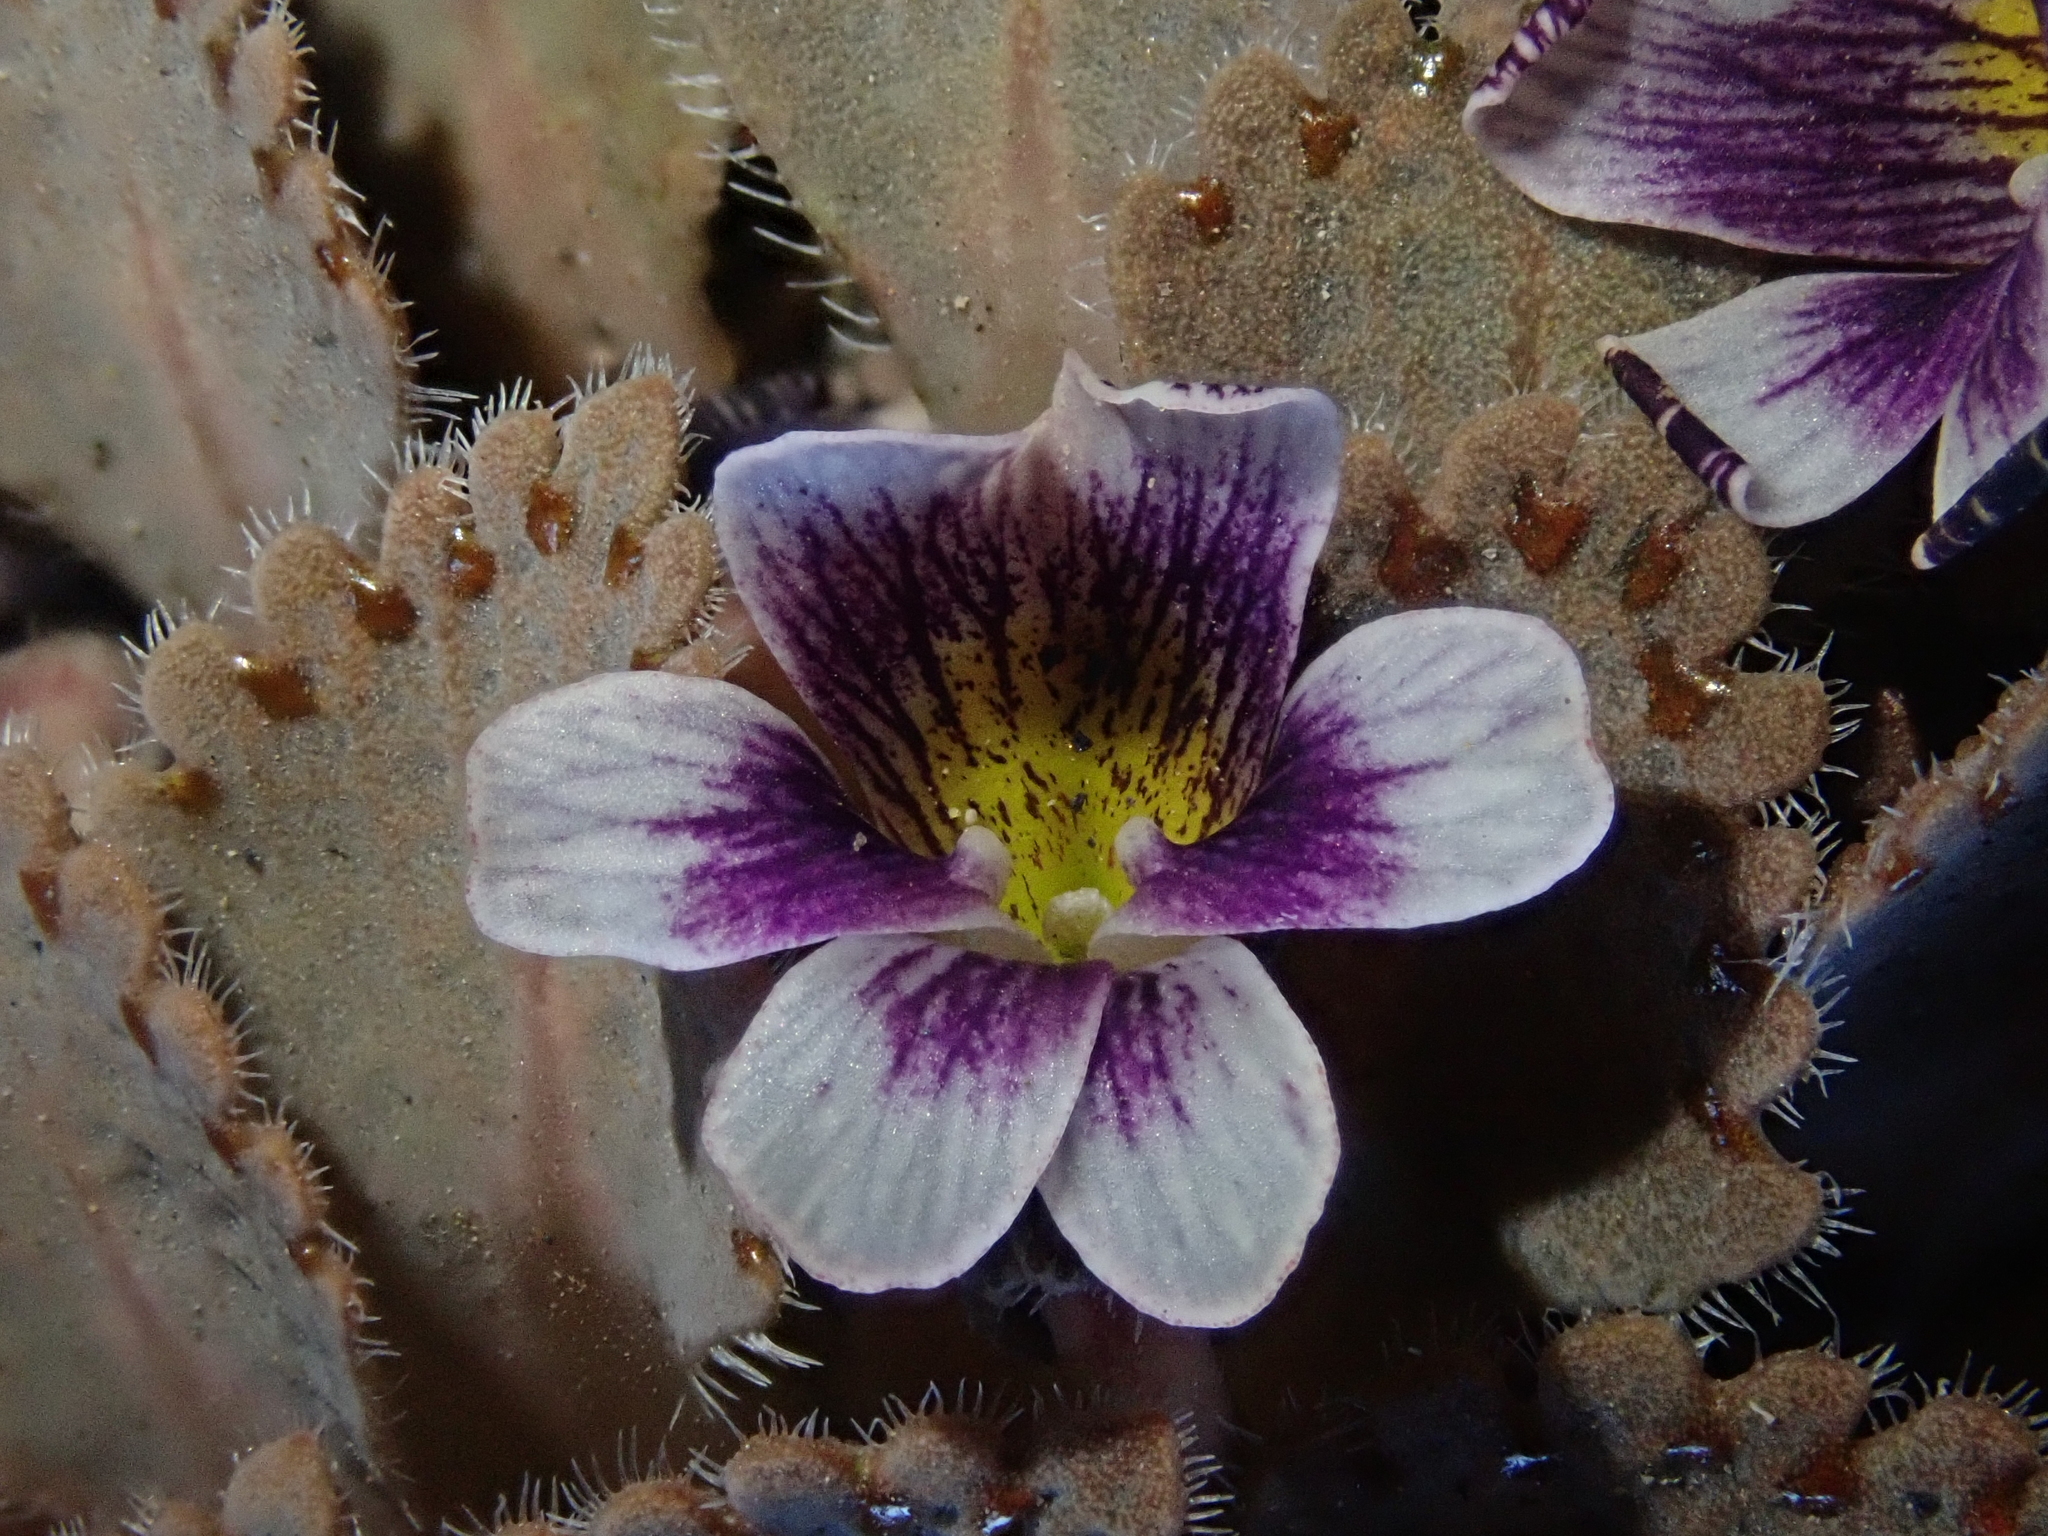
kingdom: Plantae
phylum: Tracheophyta
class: Magnoliopsida
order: Malpighiales
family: Violaceae
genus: Viola
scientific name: Viola congesta
